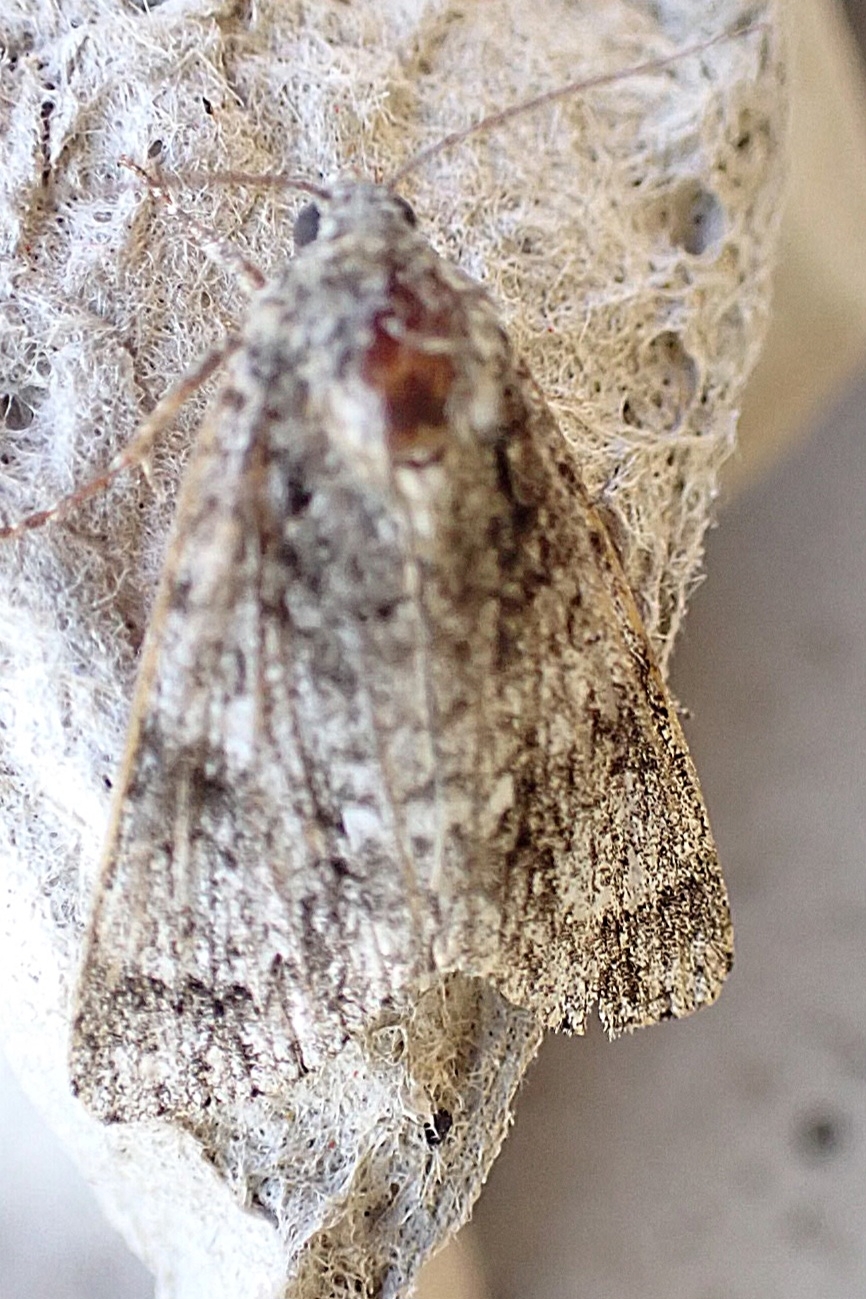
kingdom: Animalia
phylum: Arthropoda
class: Insecta
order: Lepidoptera
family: Noctuidae
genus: Acronicta
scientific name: Acronicta megacephala
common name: Poplar grey
